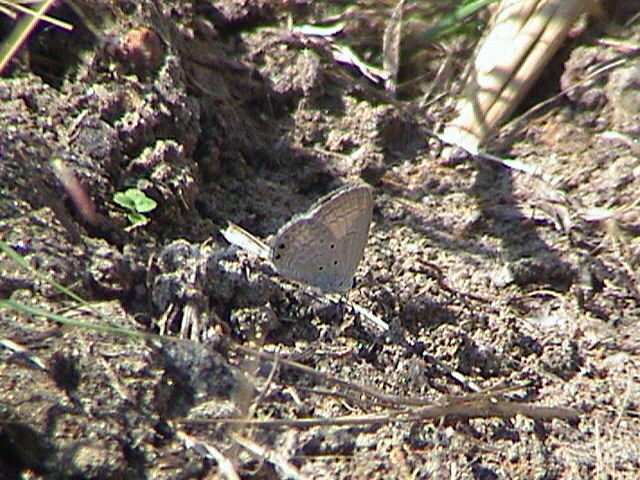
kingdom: Animalia
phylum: Arthropoda
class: Insecta
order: Lepidoptera
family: Lycaenidae
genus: Euchrysops
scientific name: Euchrysops cnejus
